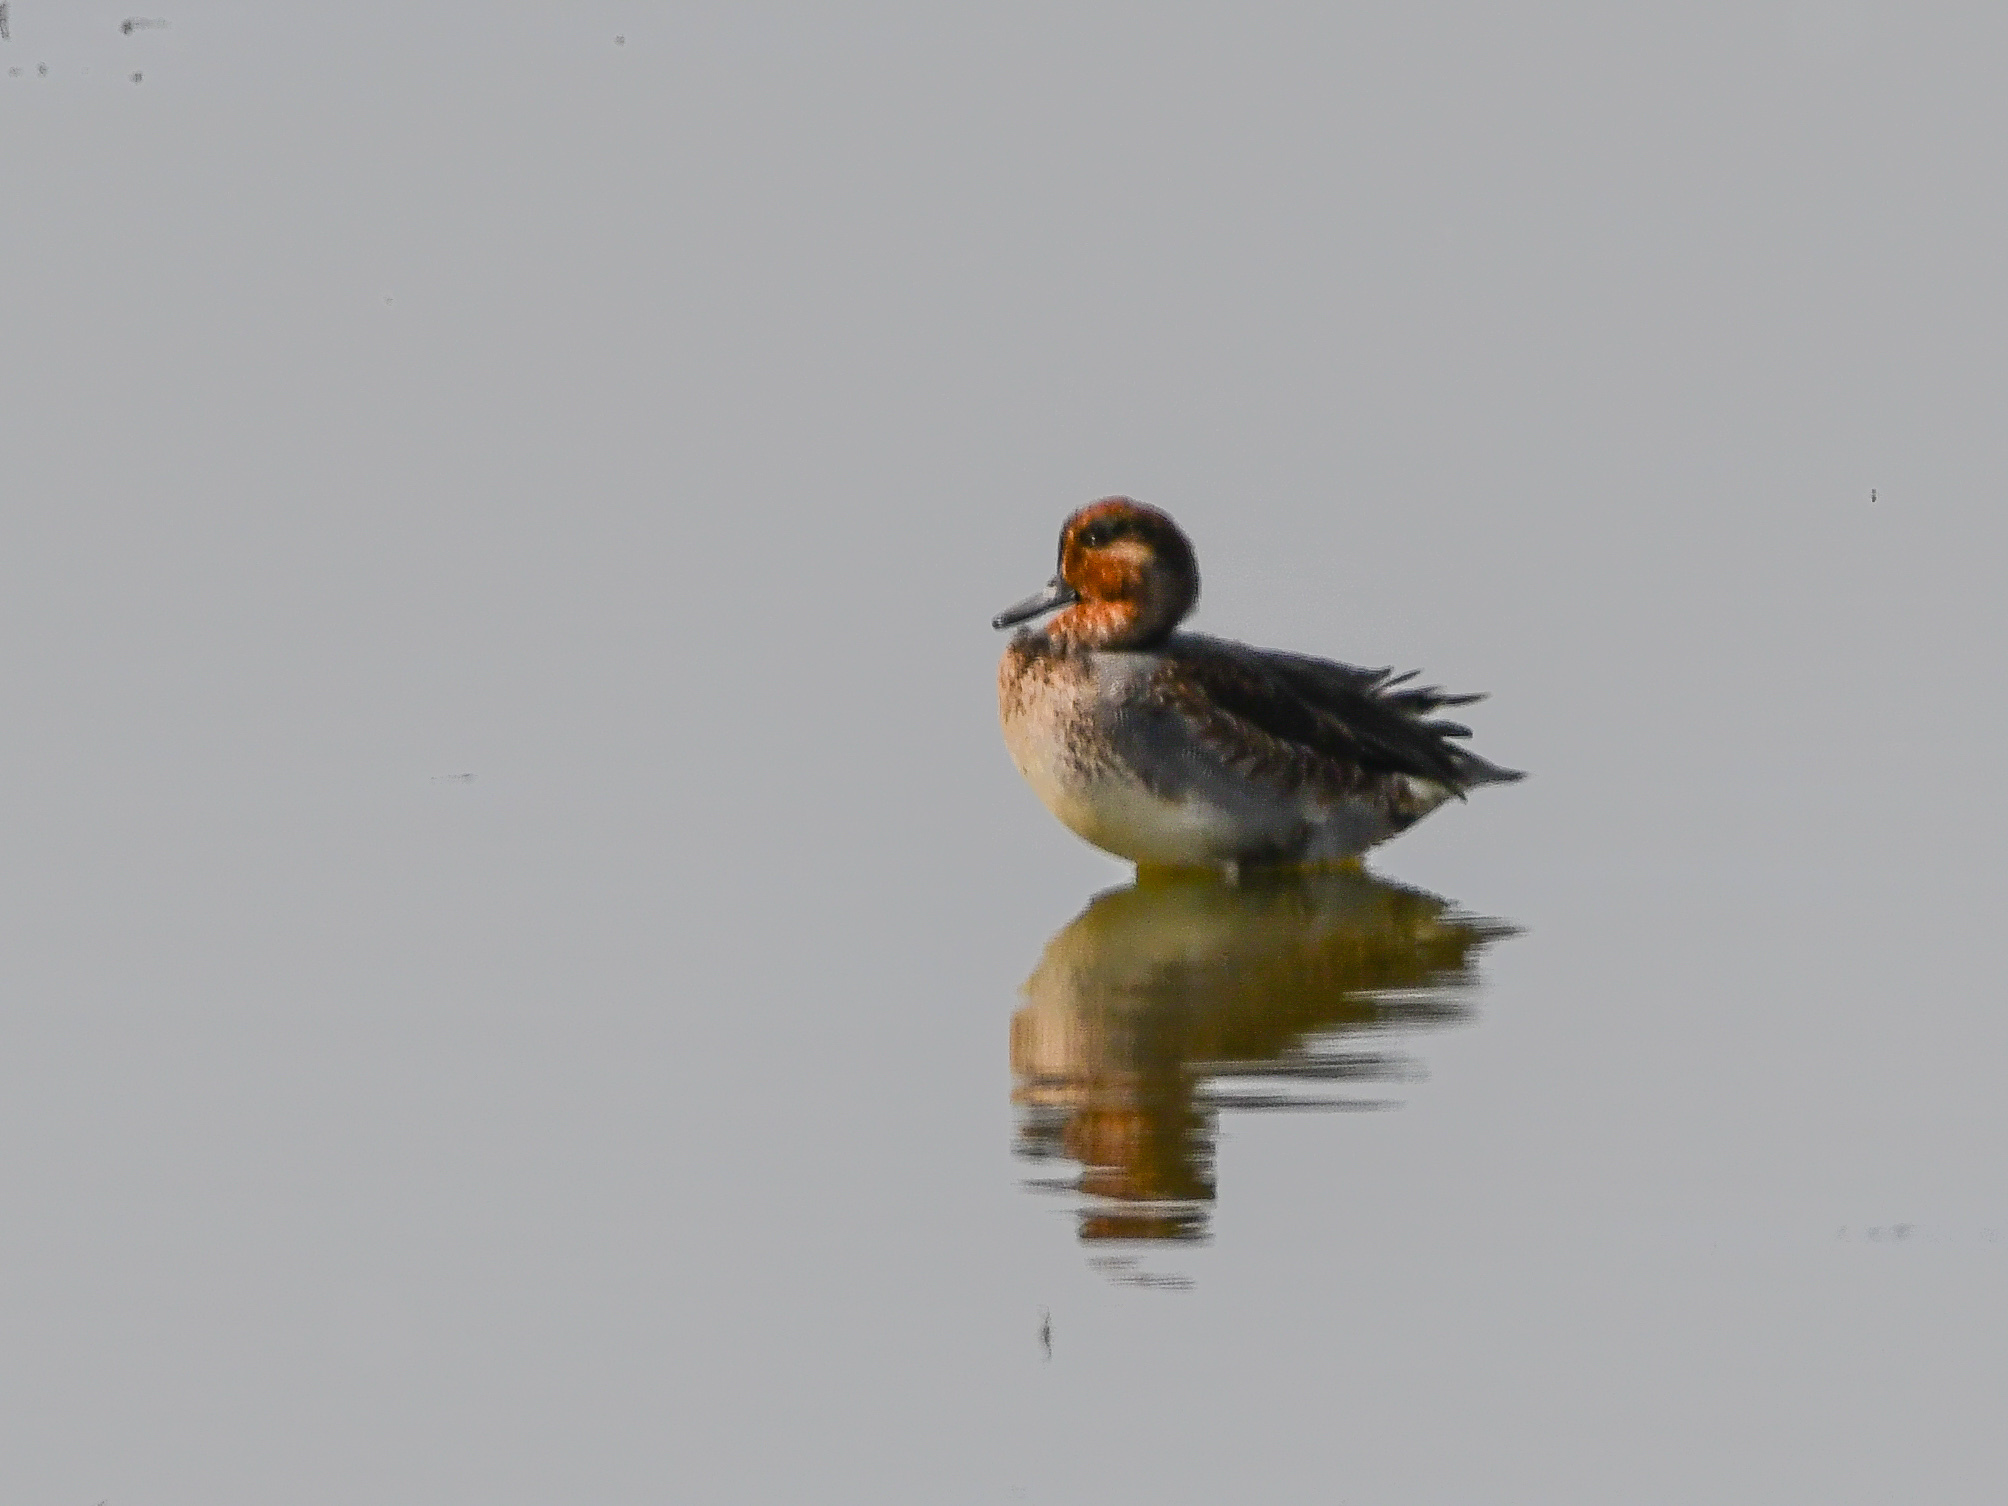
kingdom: Animalia
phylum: Chordata
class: Aves
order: Anseriformes
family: Anatidae
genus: Anas
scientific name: Anas crecca
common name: Eurasian teal
